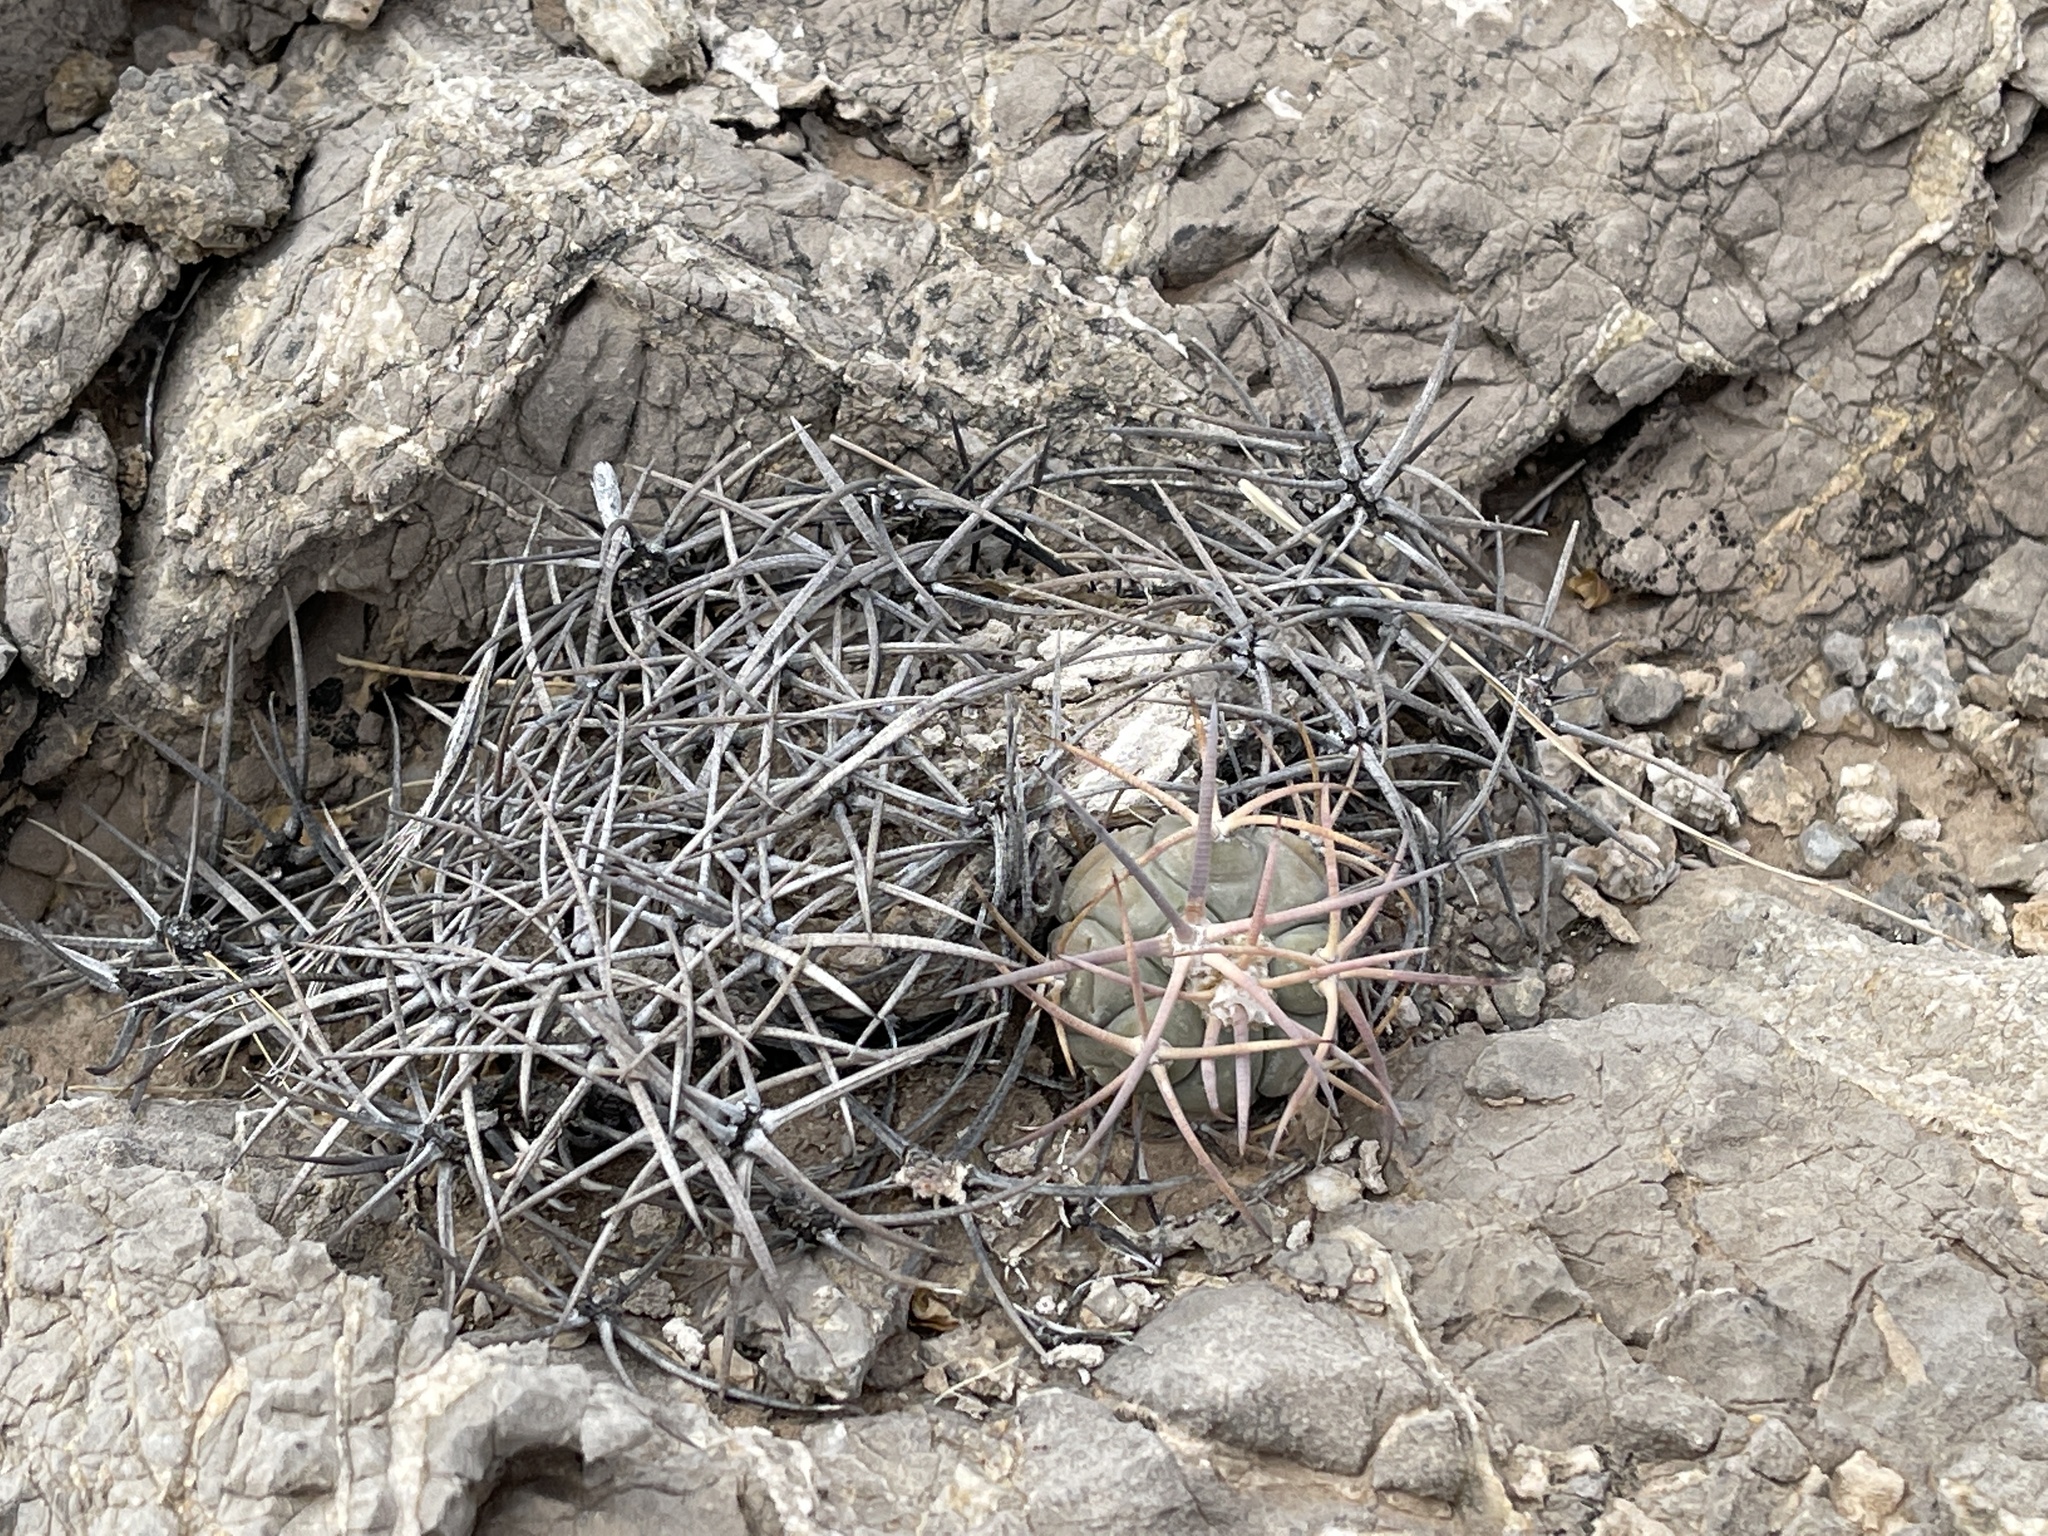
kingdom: Plantae
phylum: Tracheophyta
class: Magnoliopsida
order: Caryophyllales
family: Cactaceae
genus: Echinocactus
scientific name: Echinocactus horizonthalonius
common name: Devilshead
